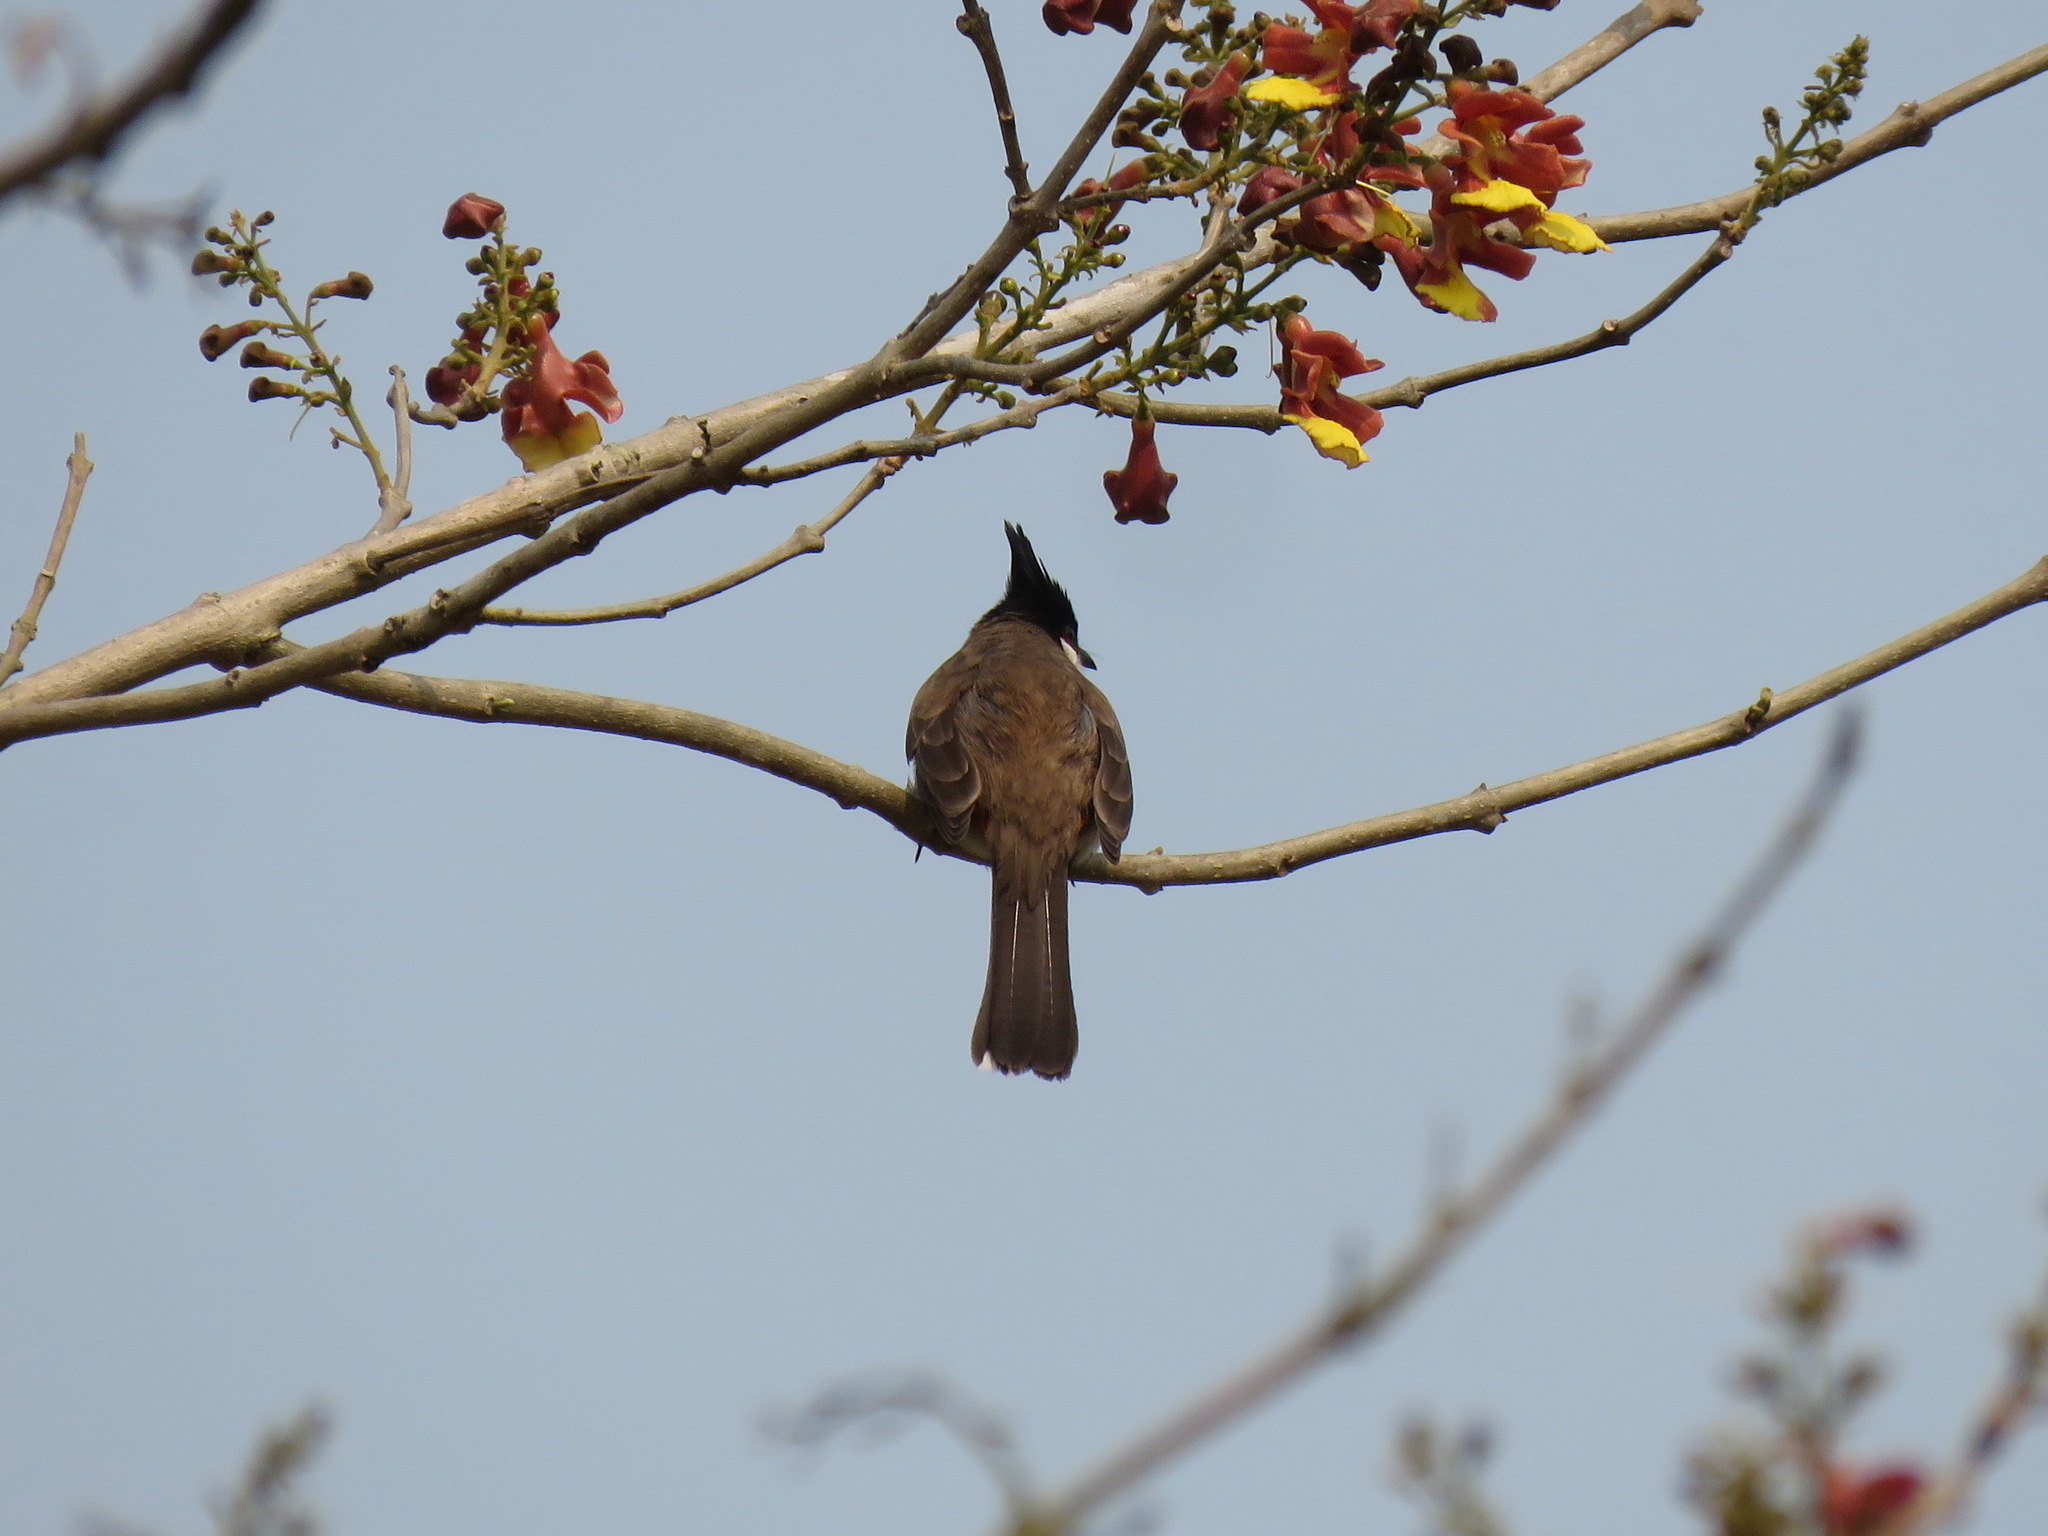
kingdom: Animalia
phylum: Chordata
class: Aves
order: Passeriformes
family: Pycnonotidae
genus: Pycnonotus
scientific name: Pycnonotus jocosus
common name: Red-whiskered bulbul
